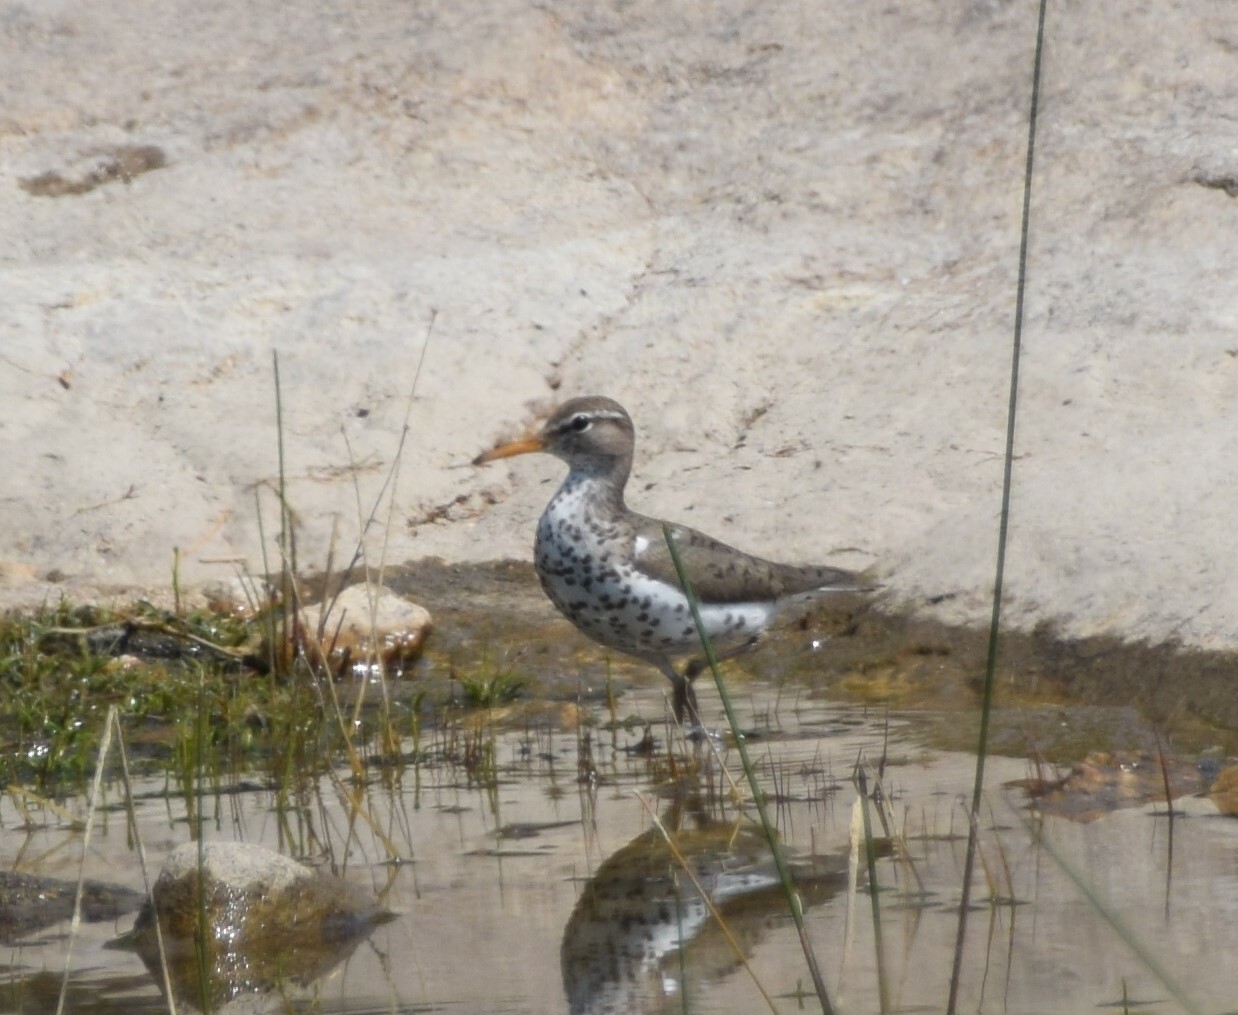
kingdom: Animalia
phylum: Chordata
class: Aves
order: Charadriiformes
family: Scolopacidae
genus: Actitis
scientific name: Actitis macularius
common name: Spotted sandpiper
